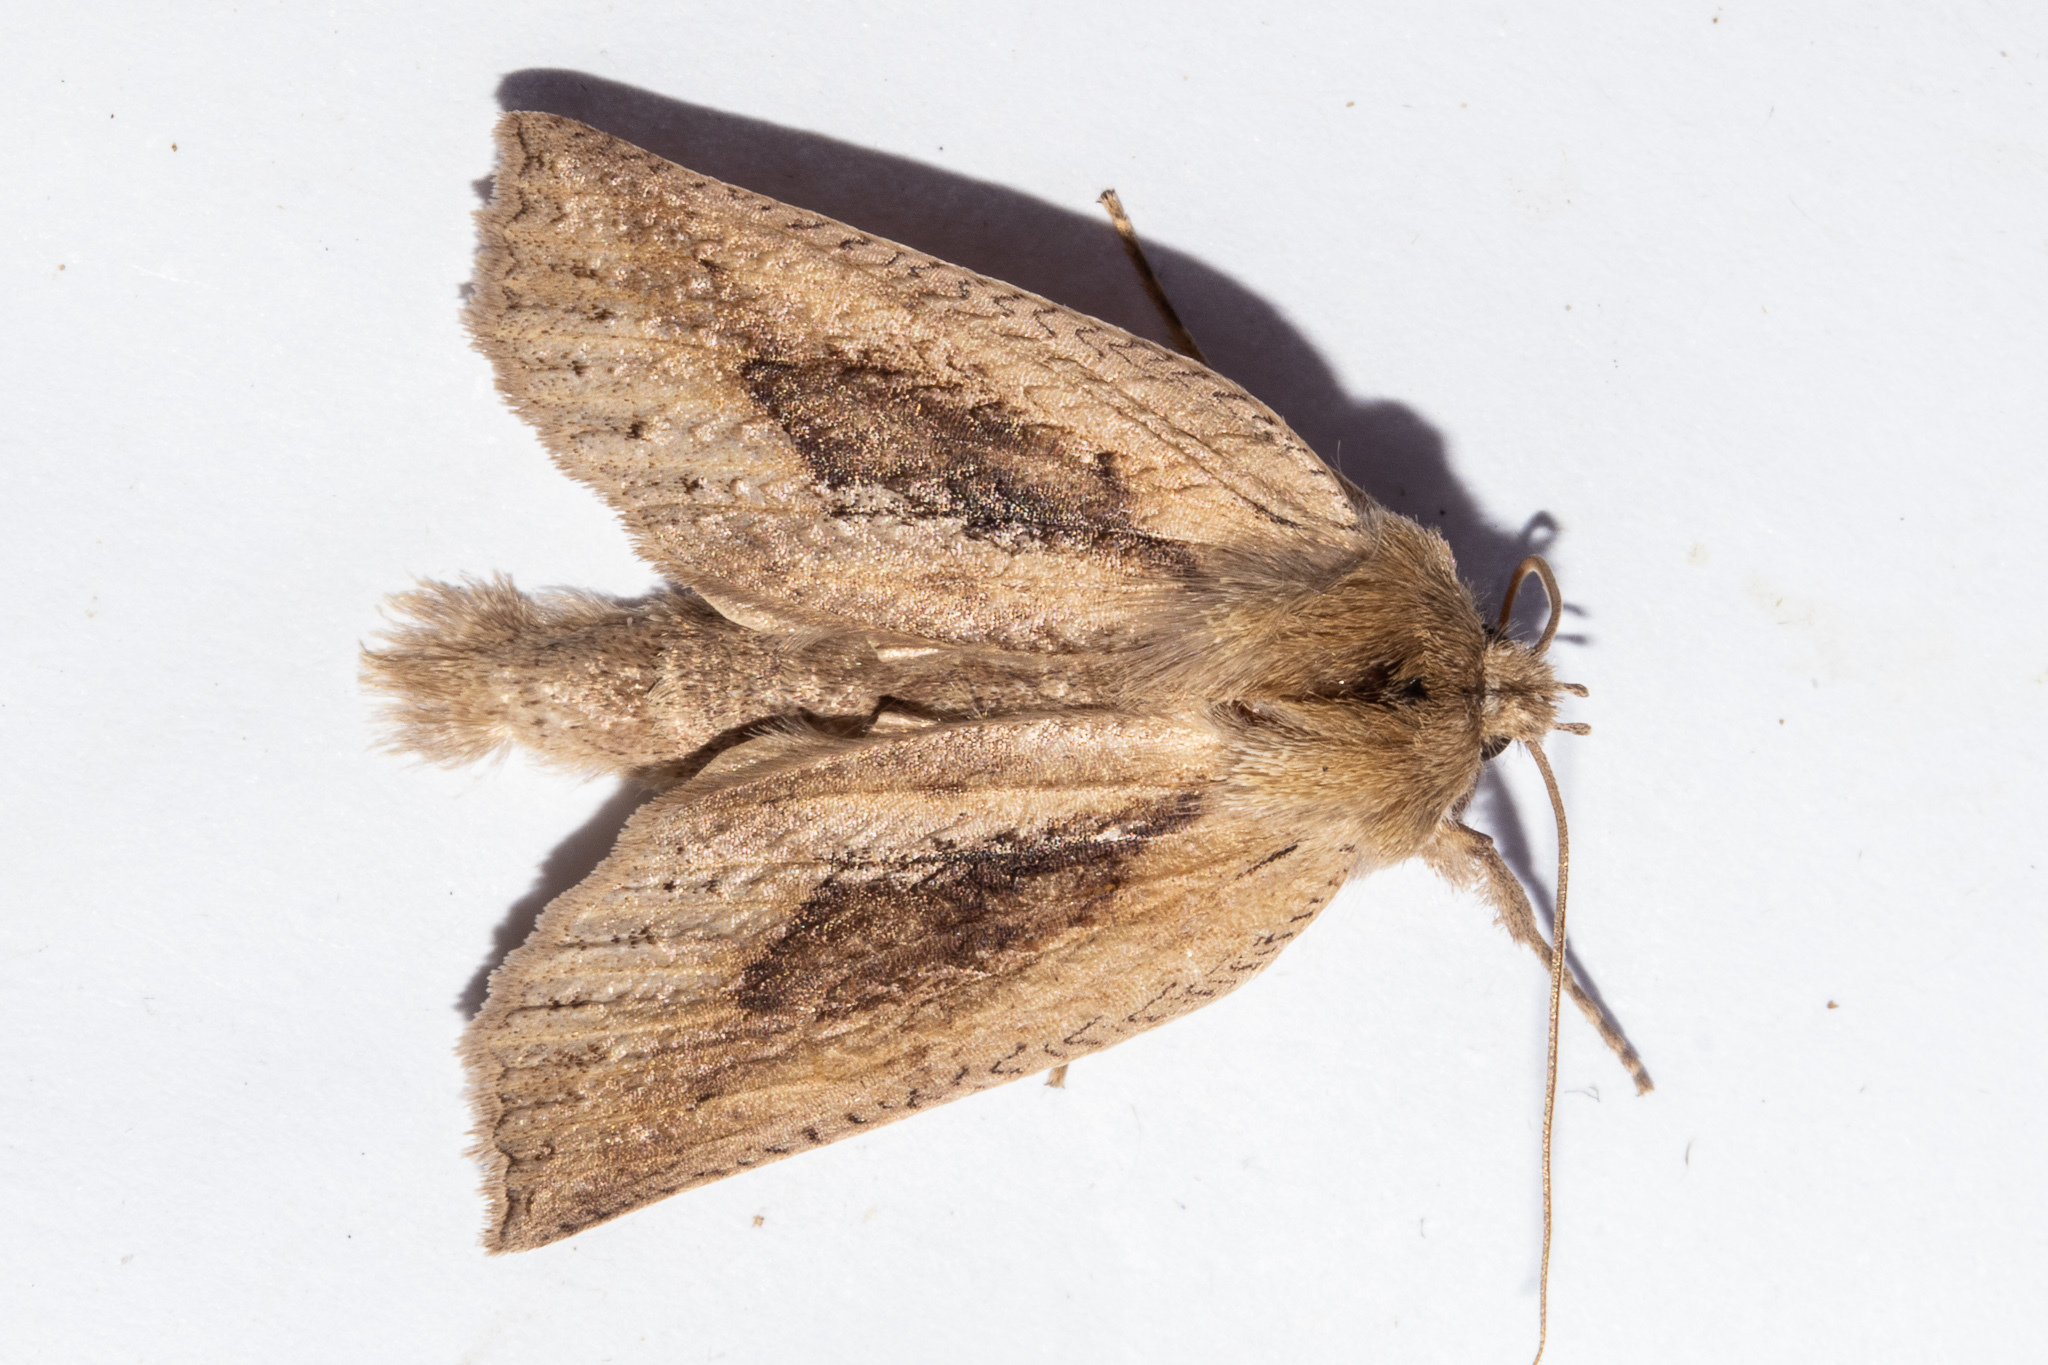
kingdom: Animalia
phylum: Arthropoda
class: Insecta
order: Lepidoptera
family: Geometridae
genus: Declana
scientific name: Declana leptomera
